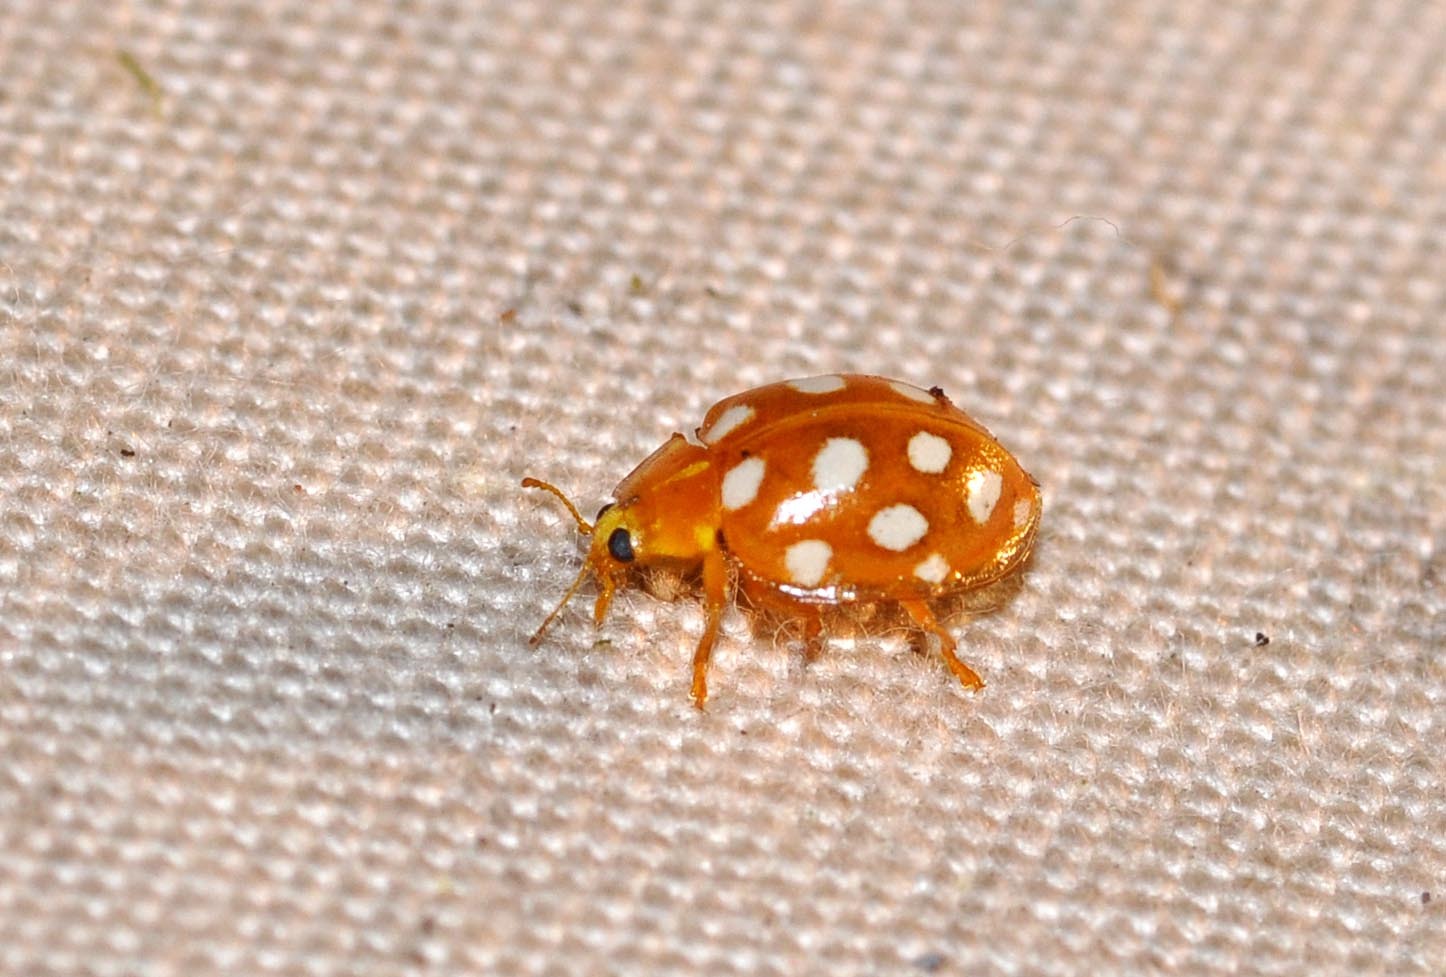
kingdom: Animalia
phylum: Arthropoda
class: Insecta
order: Coleoptera
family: Coccinellidae
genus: Halyzia
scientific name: Halyzia sedecimguttata
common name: Orange ladybird
